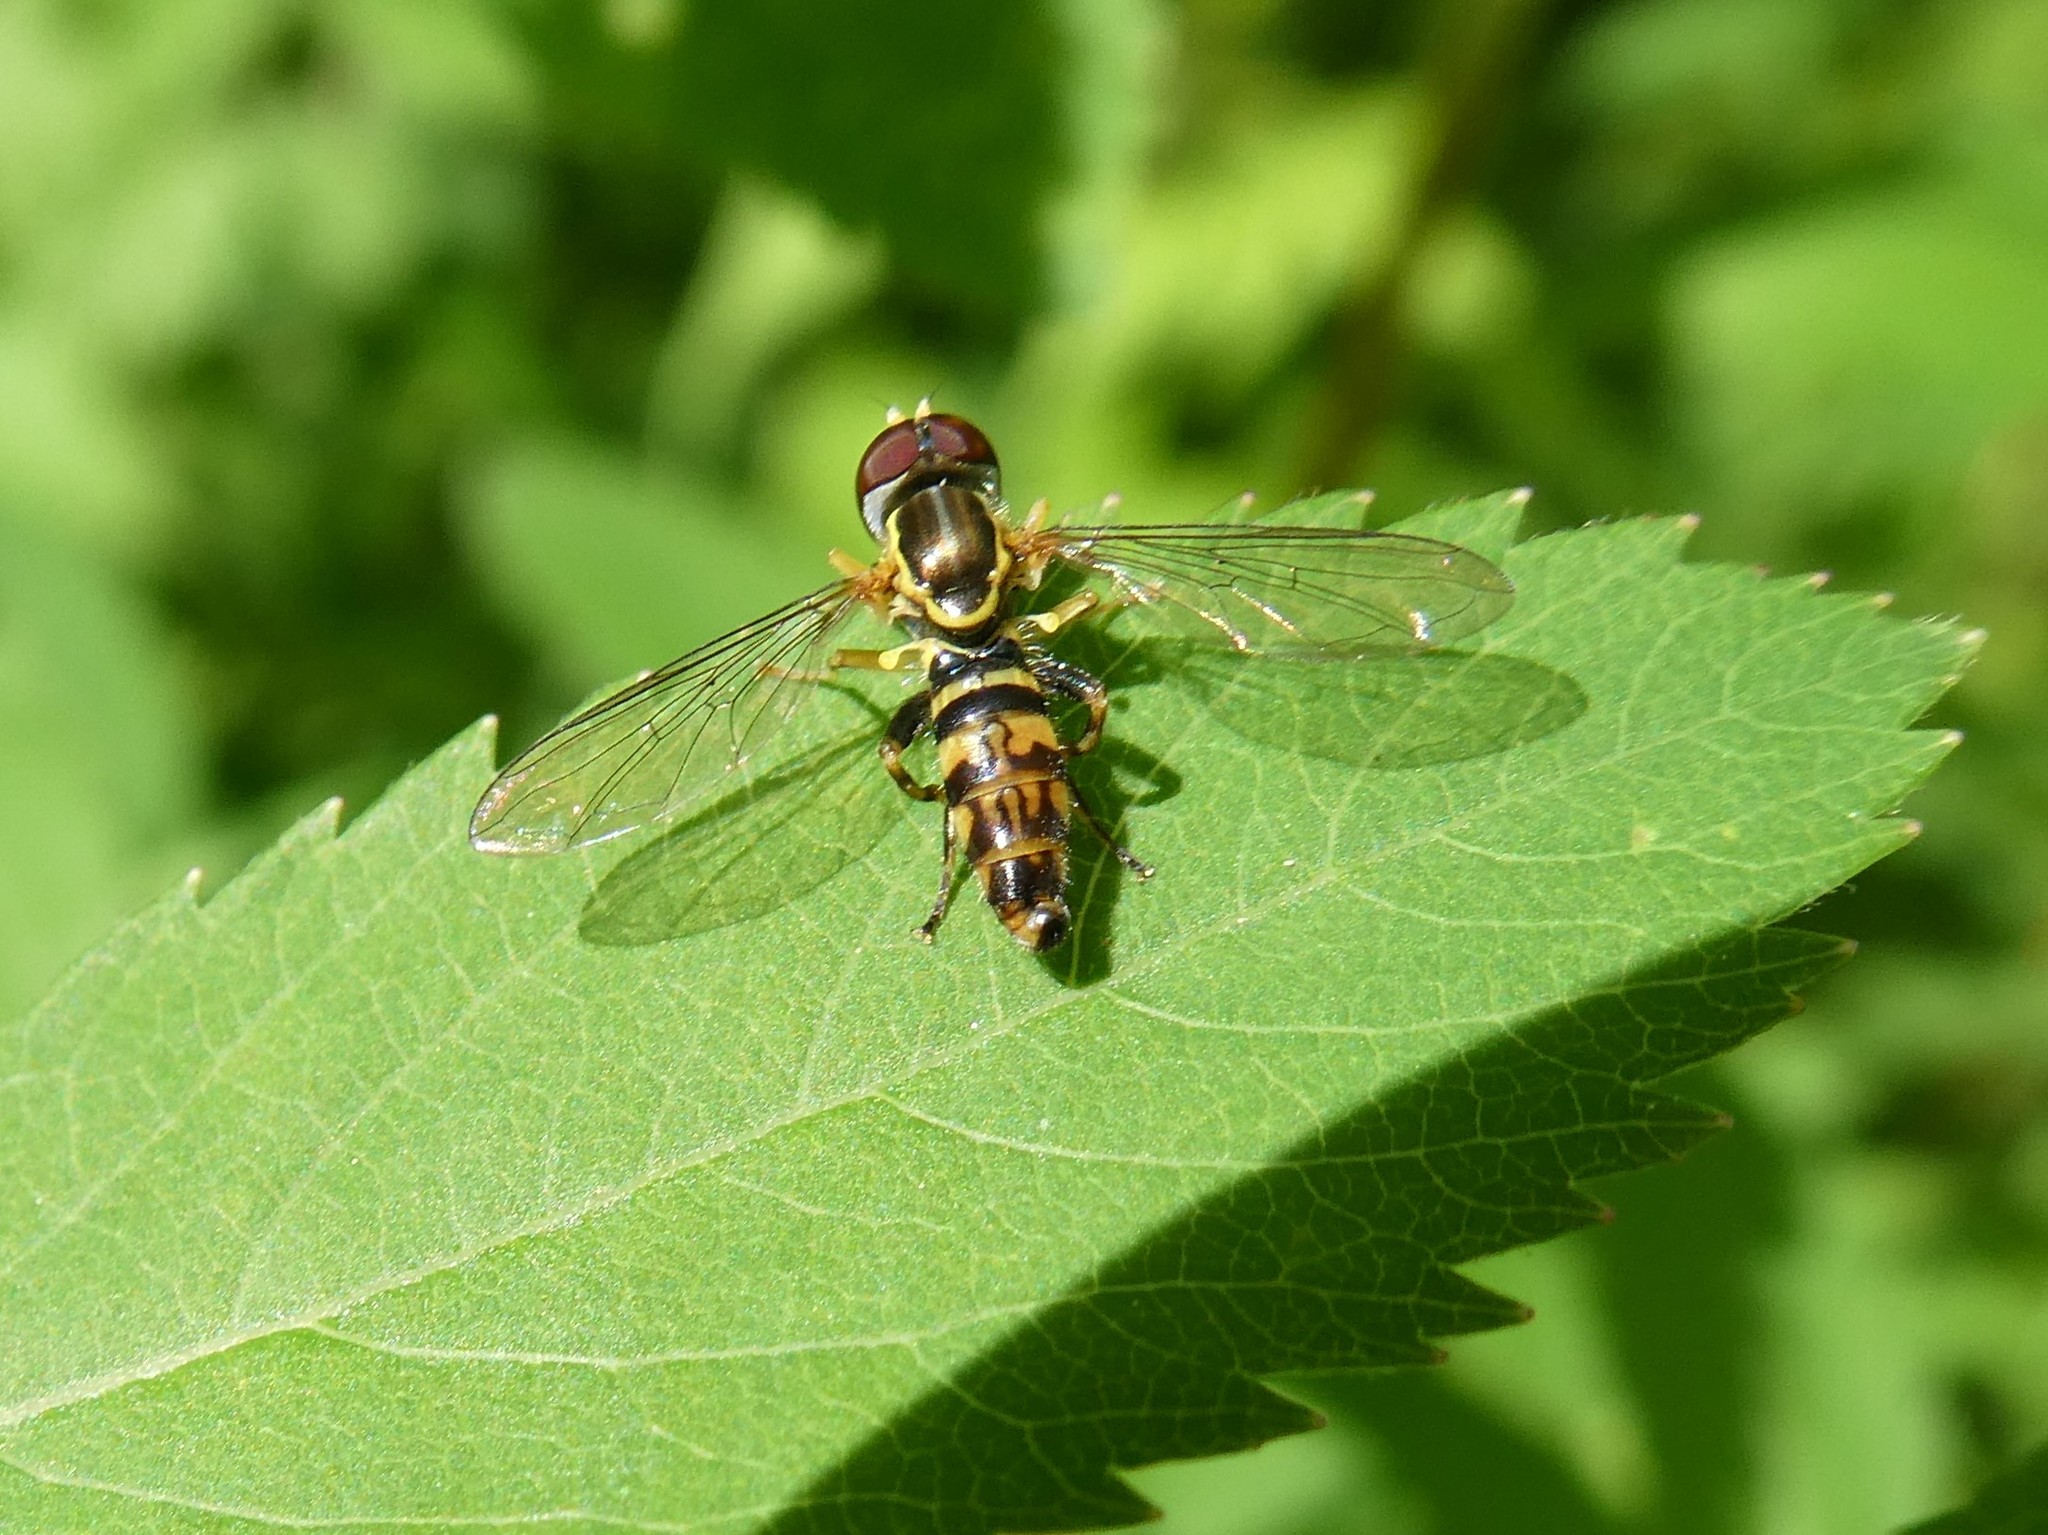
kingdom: Animalia
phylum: Arthropoda
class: Insecta
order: Diptera
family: Syrphidae
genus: Toxomerus
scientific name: Toxomerus geminatus
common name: Eastern calligrapher
